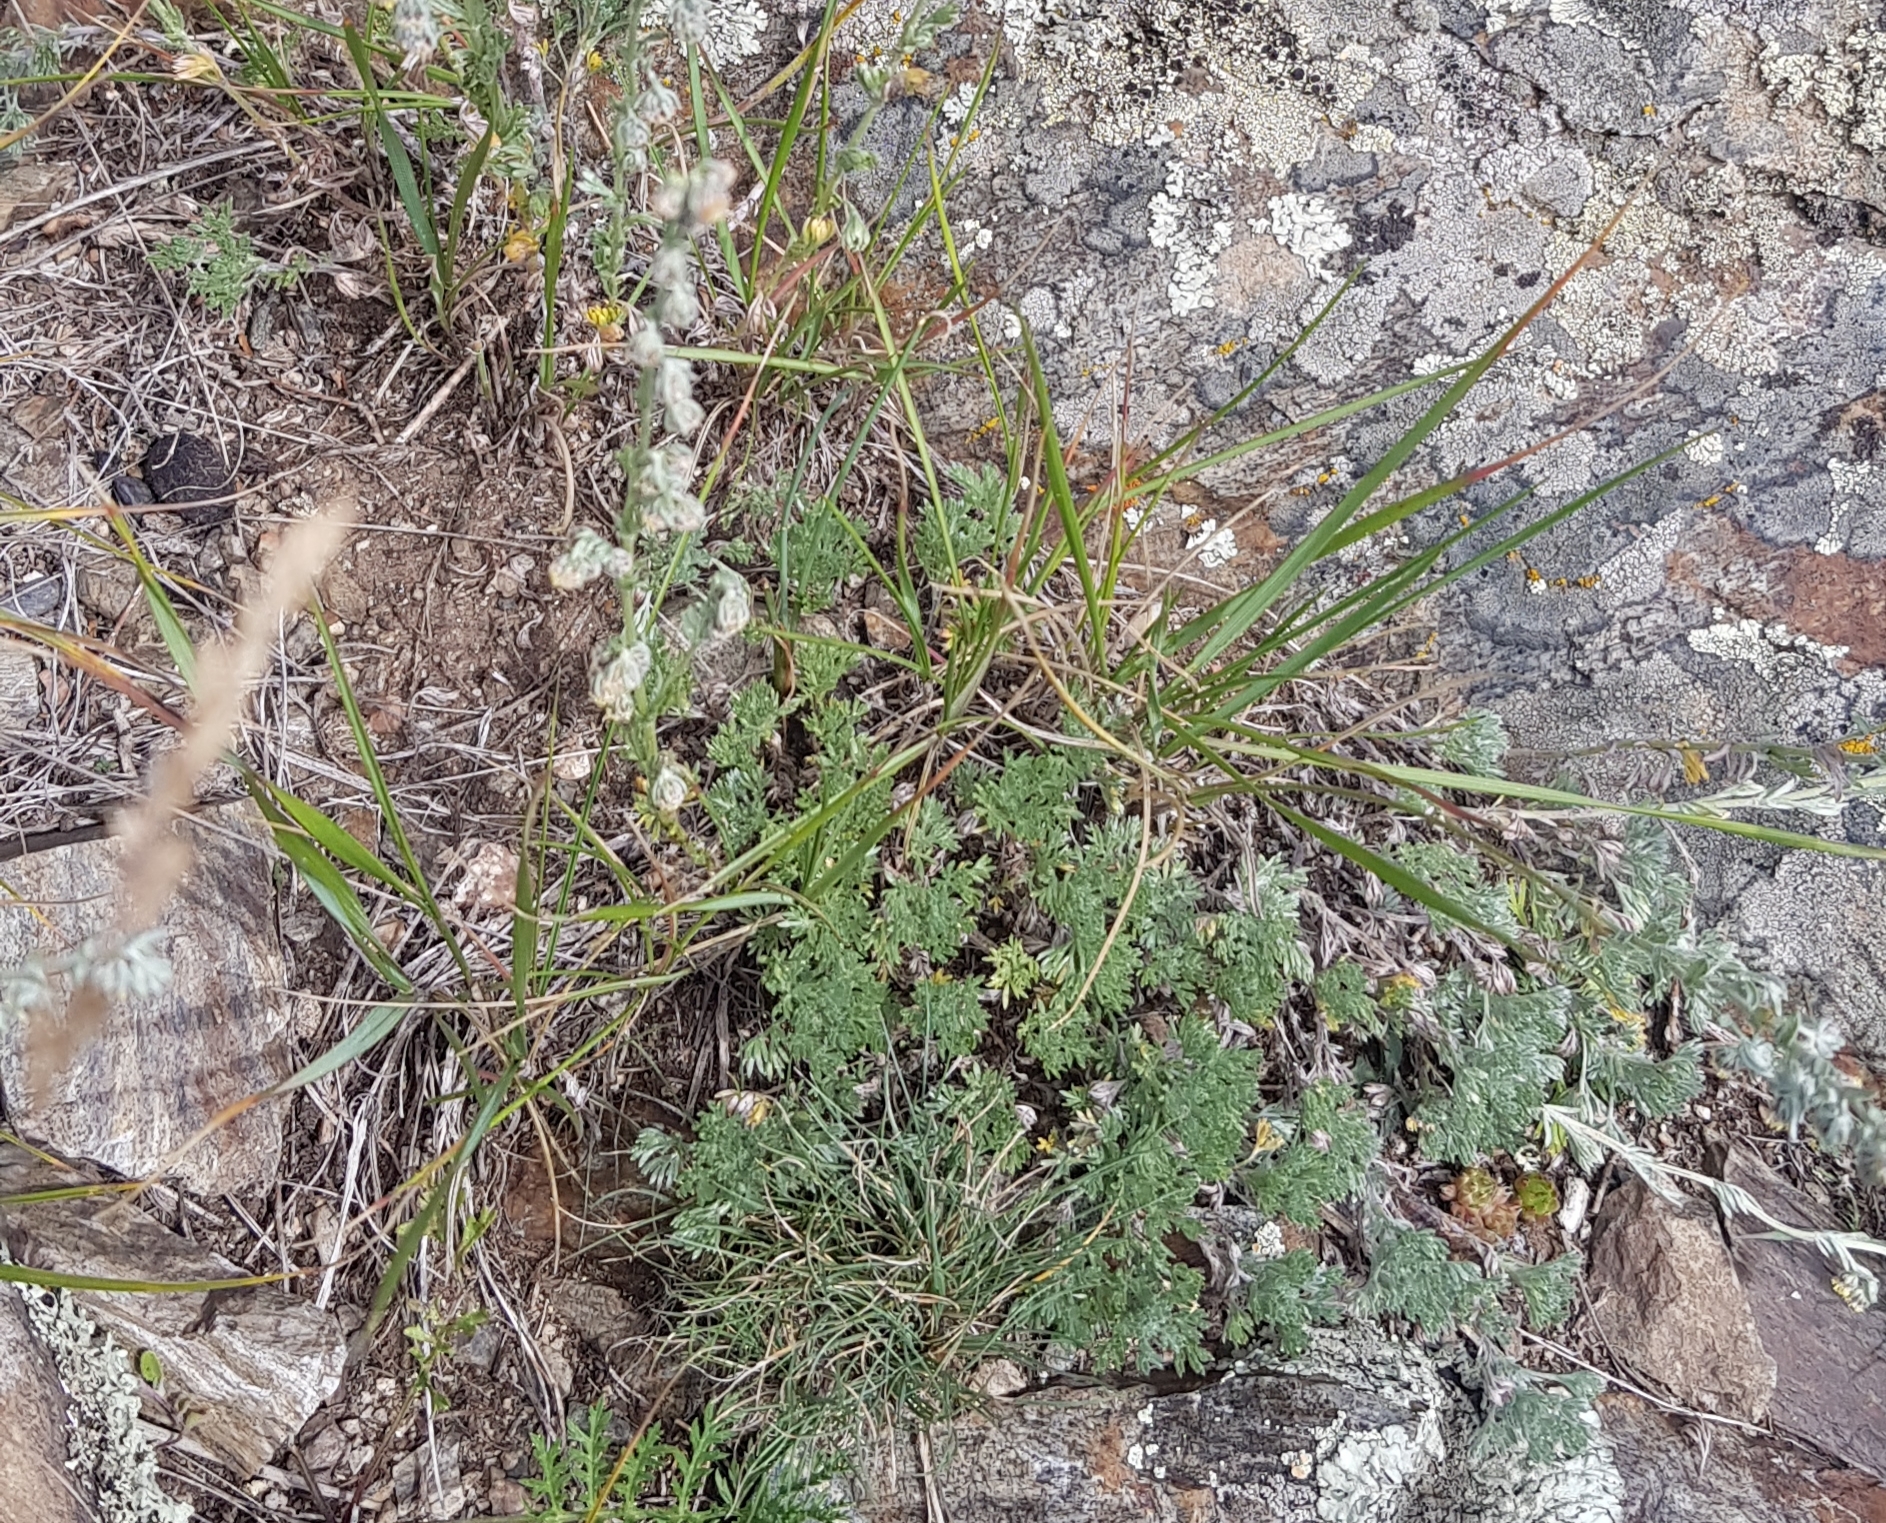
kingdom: Plantae
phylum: Tracheophyta
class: Magnoliopsida
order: Asterales
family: Asteraceae
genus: Artemisia
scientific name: Artemisia frigida
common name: Prairie sagewort
